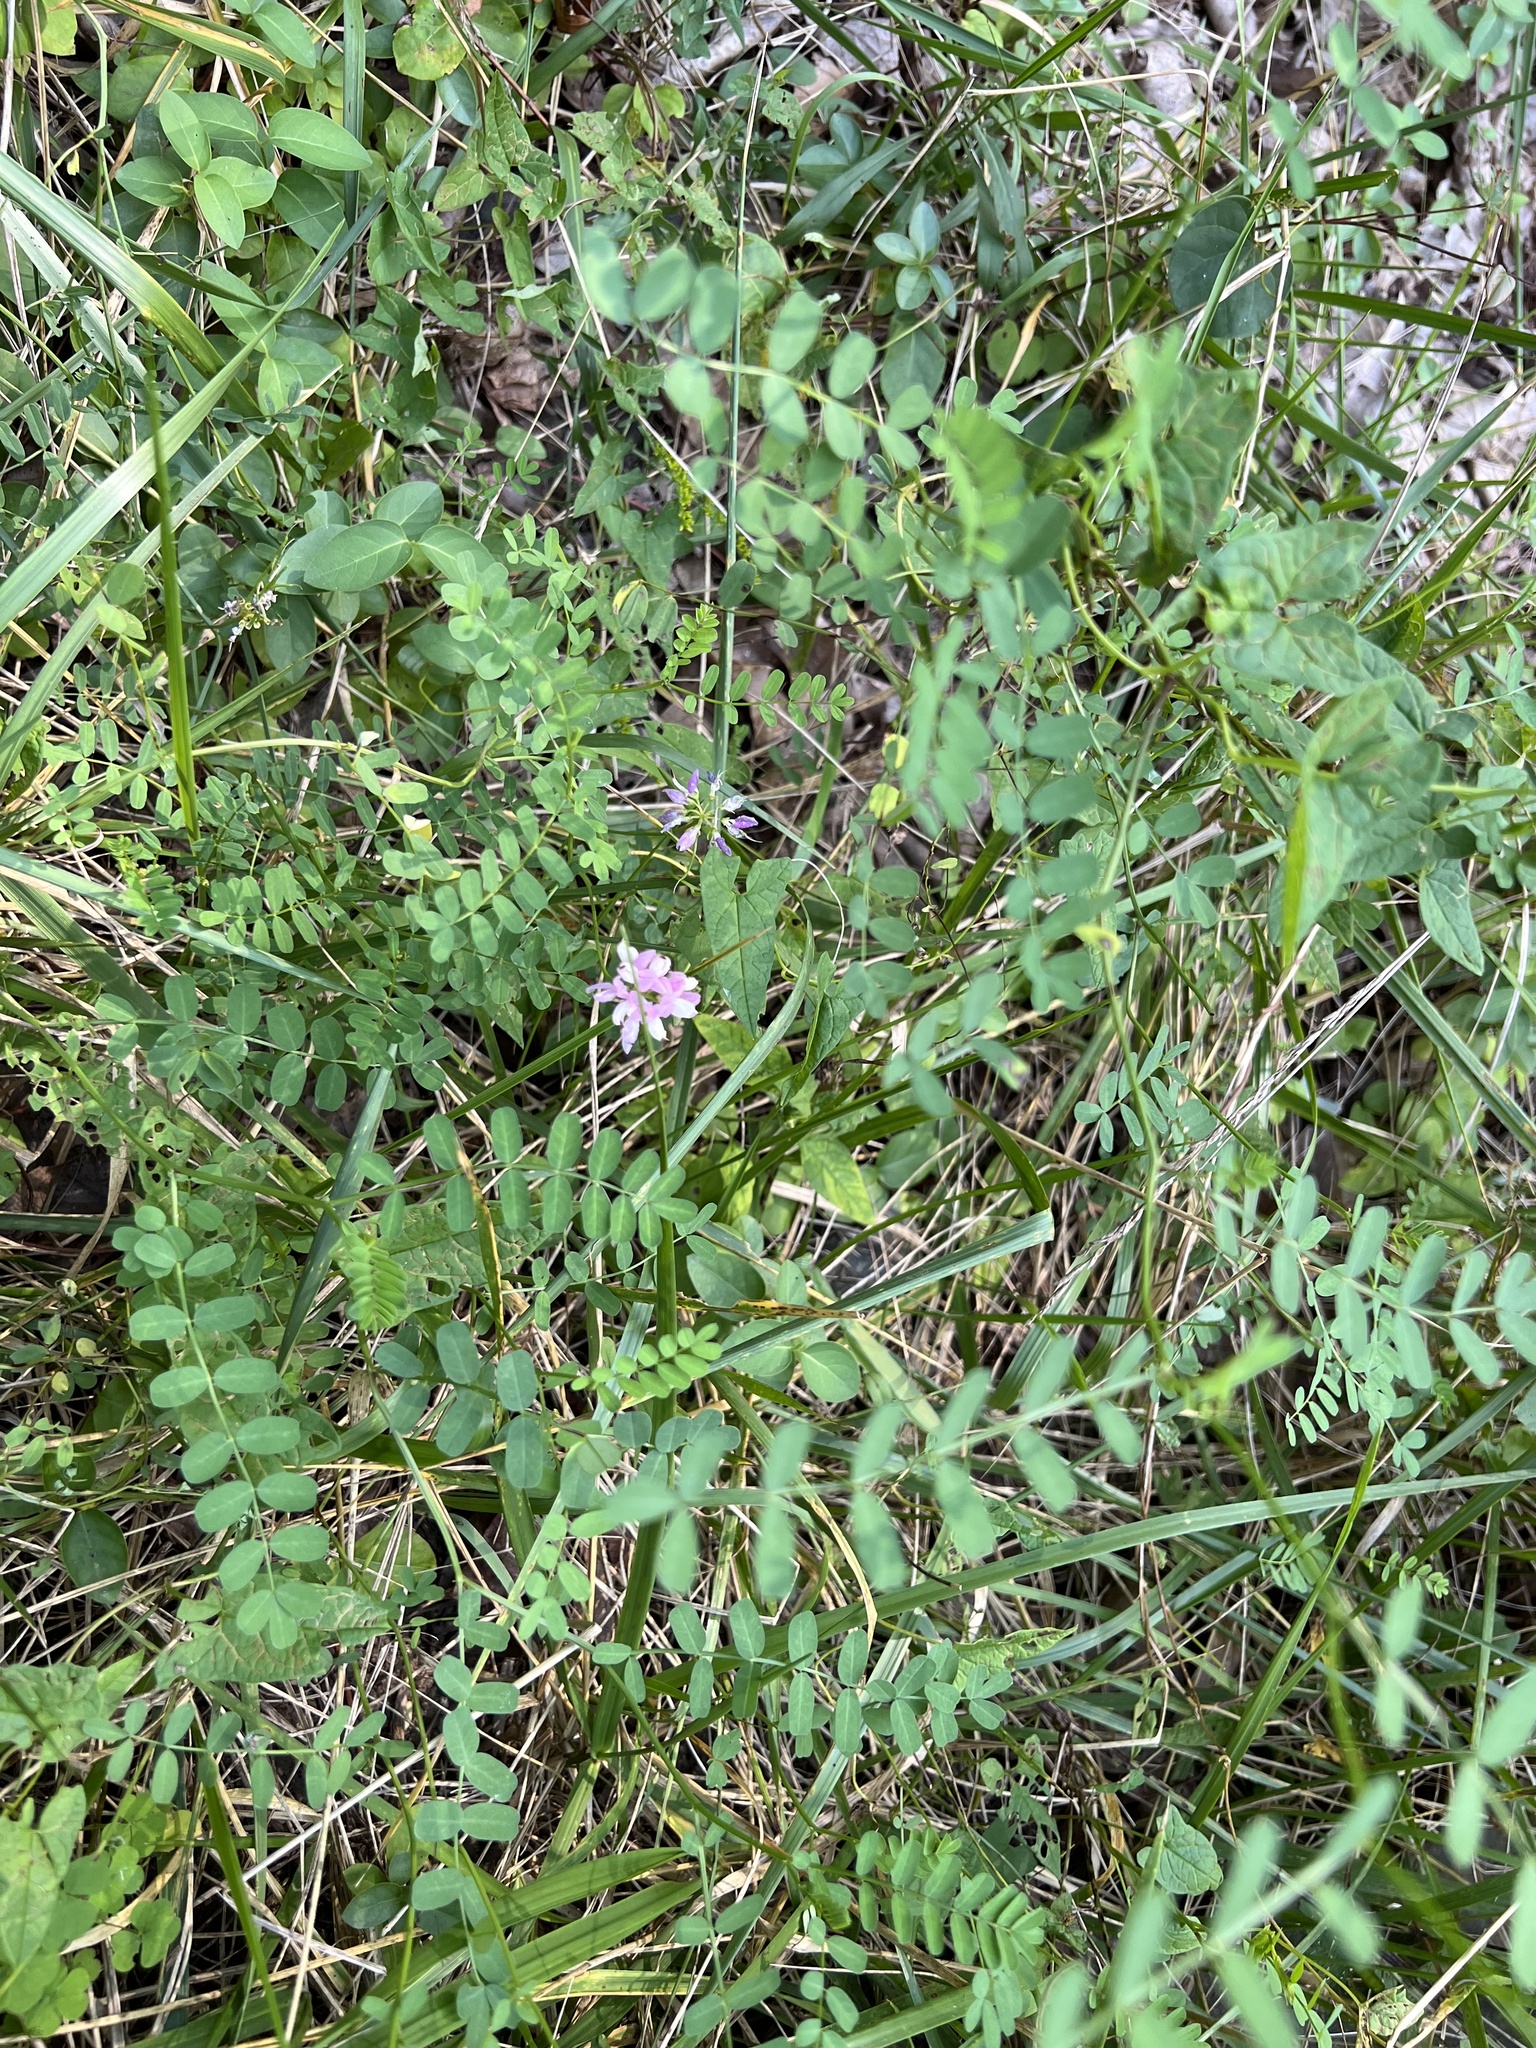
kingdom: Plantae
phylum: Tracheophyta
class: Magnoliopsida
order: Fabales
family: Fabaceae
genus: Coronilla
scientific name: Coronilla varia
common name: Crownvetch
